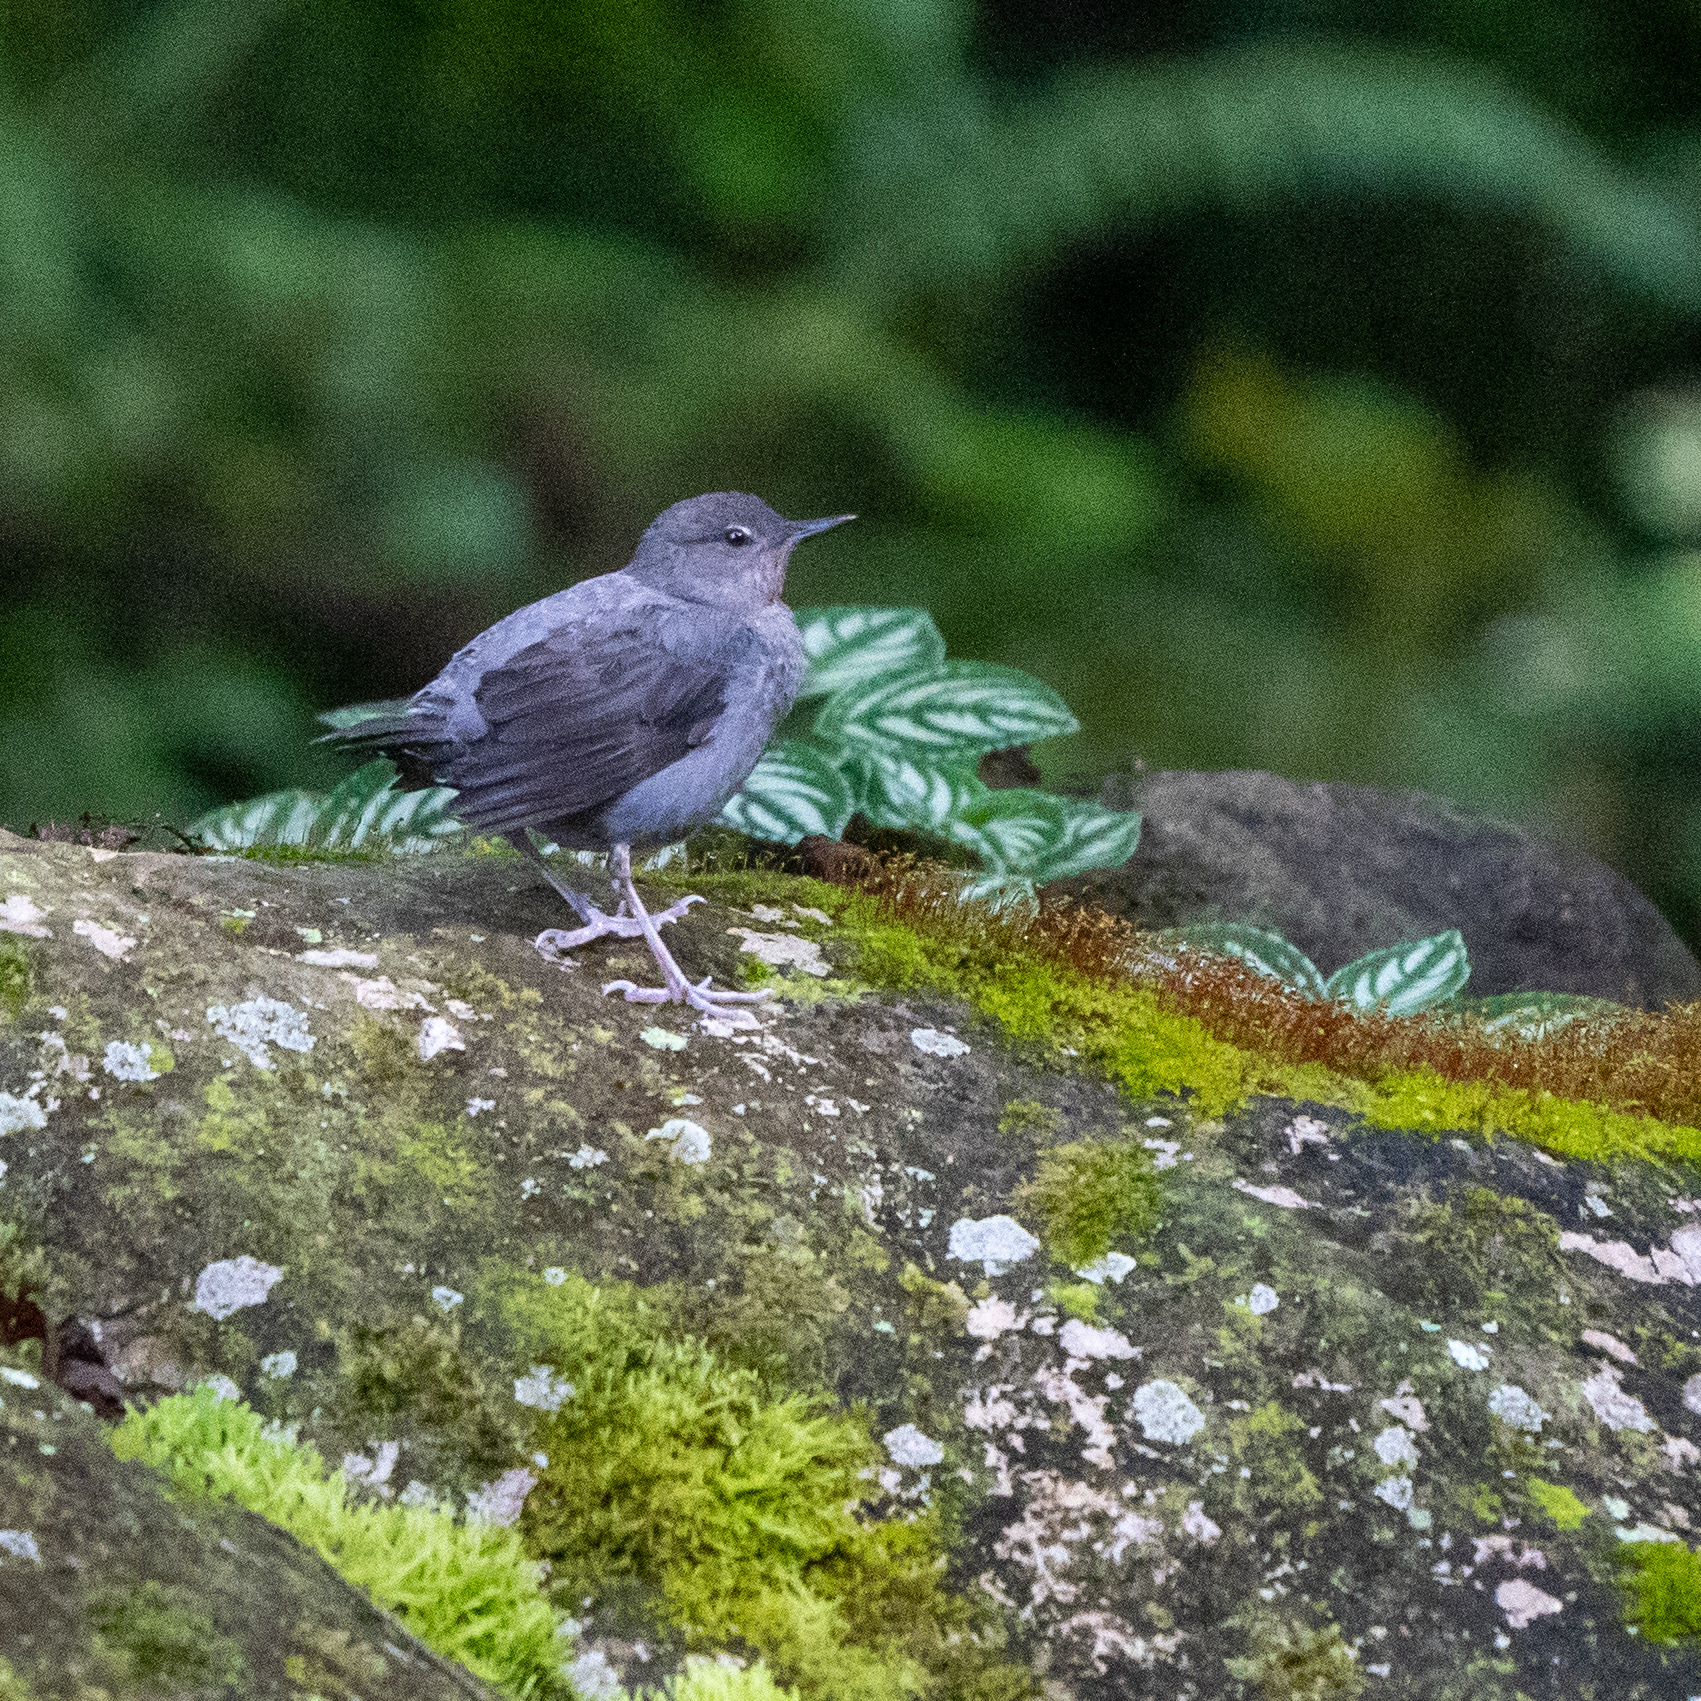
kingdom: Animalia
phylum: Chordata
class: Aves
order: Passeriformes
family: Cinclidae
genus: Cinclus
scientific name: Cinclus mexicanus
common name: American dipper
